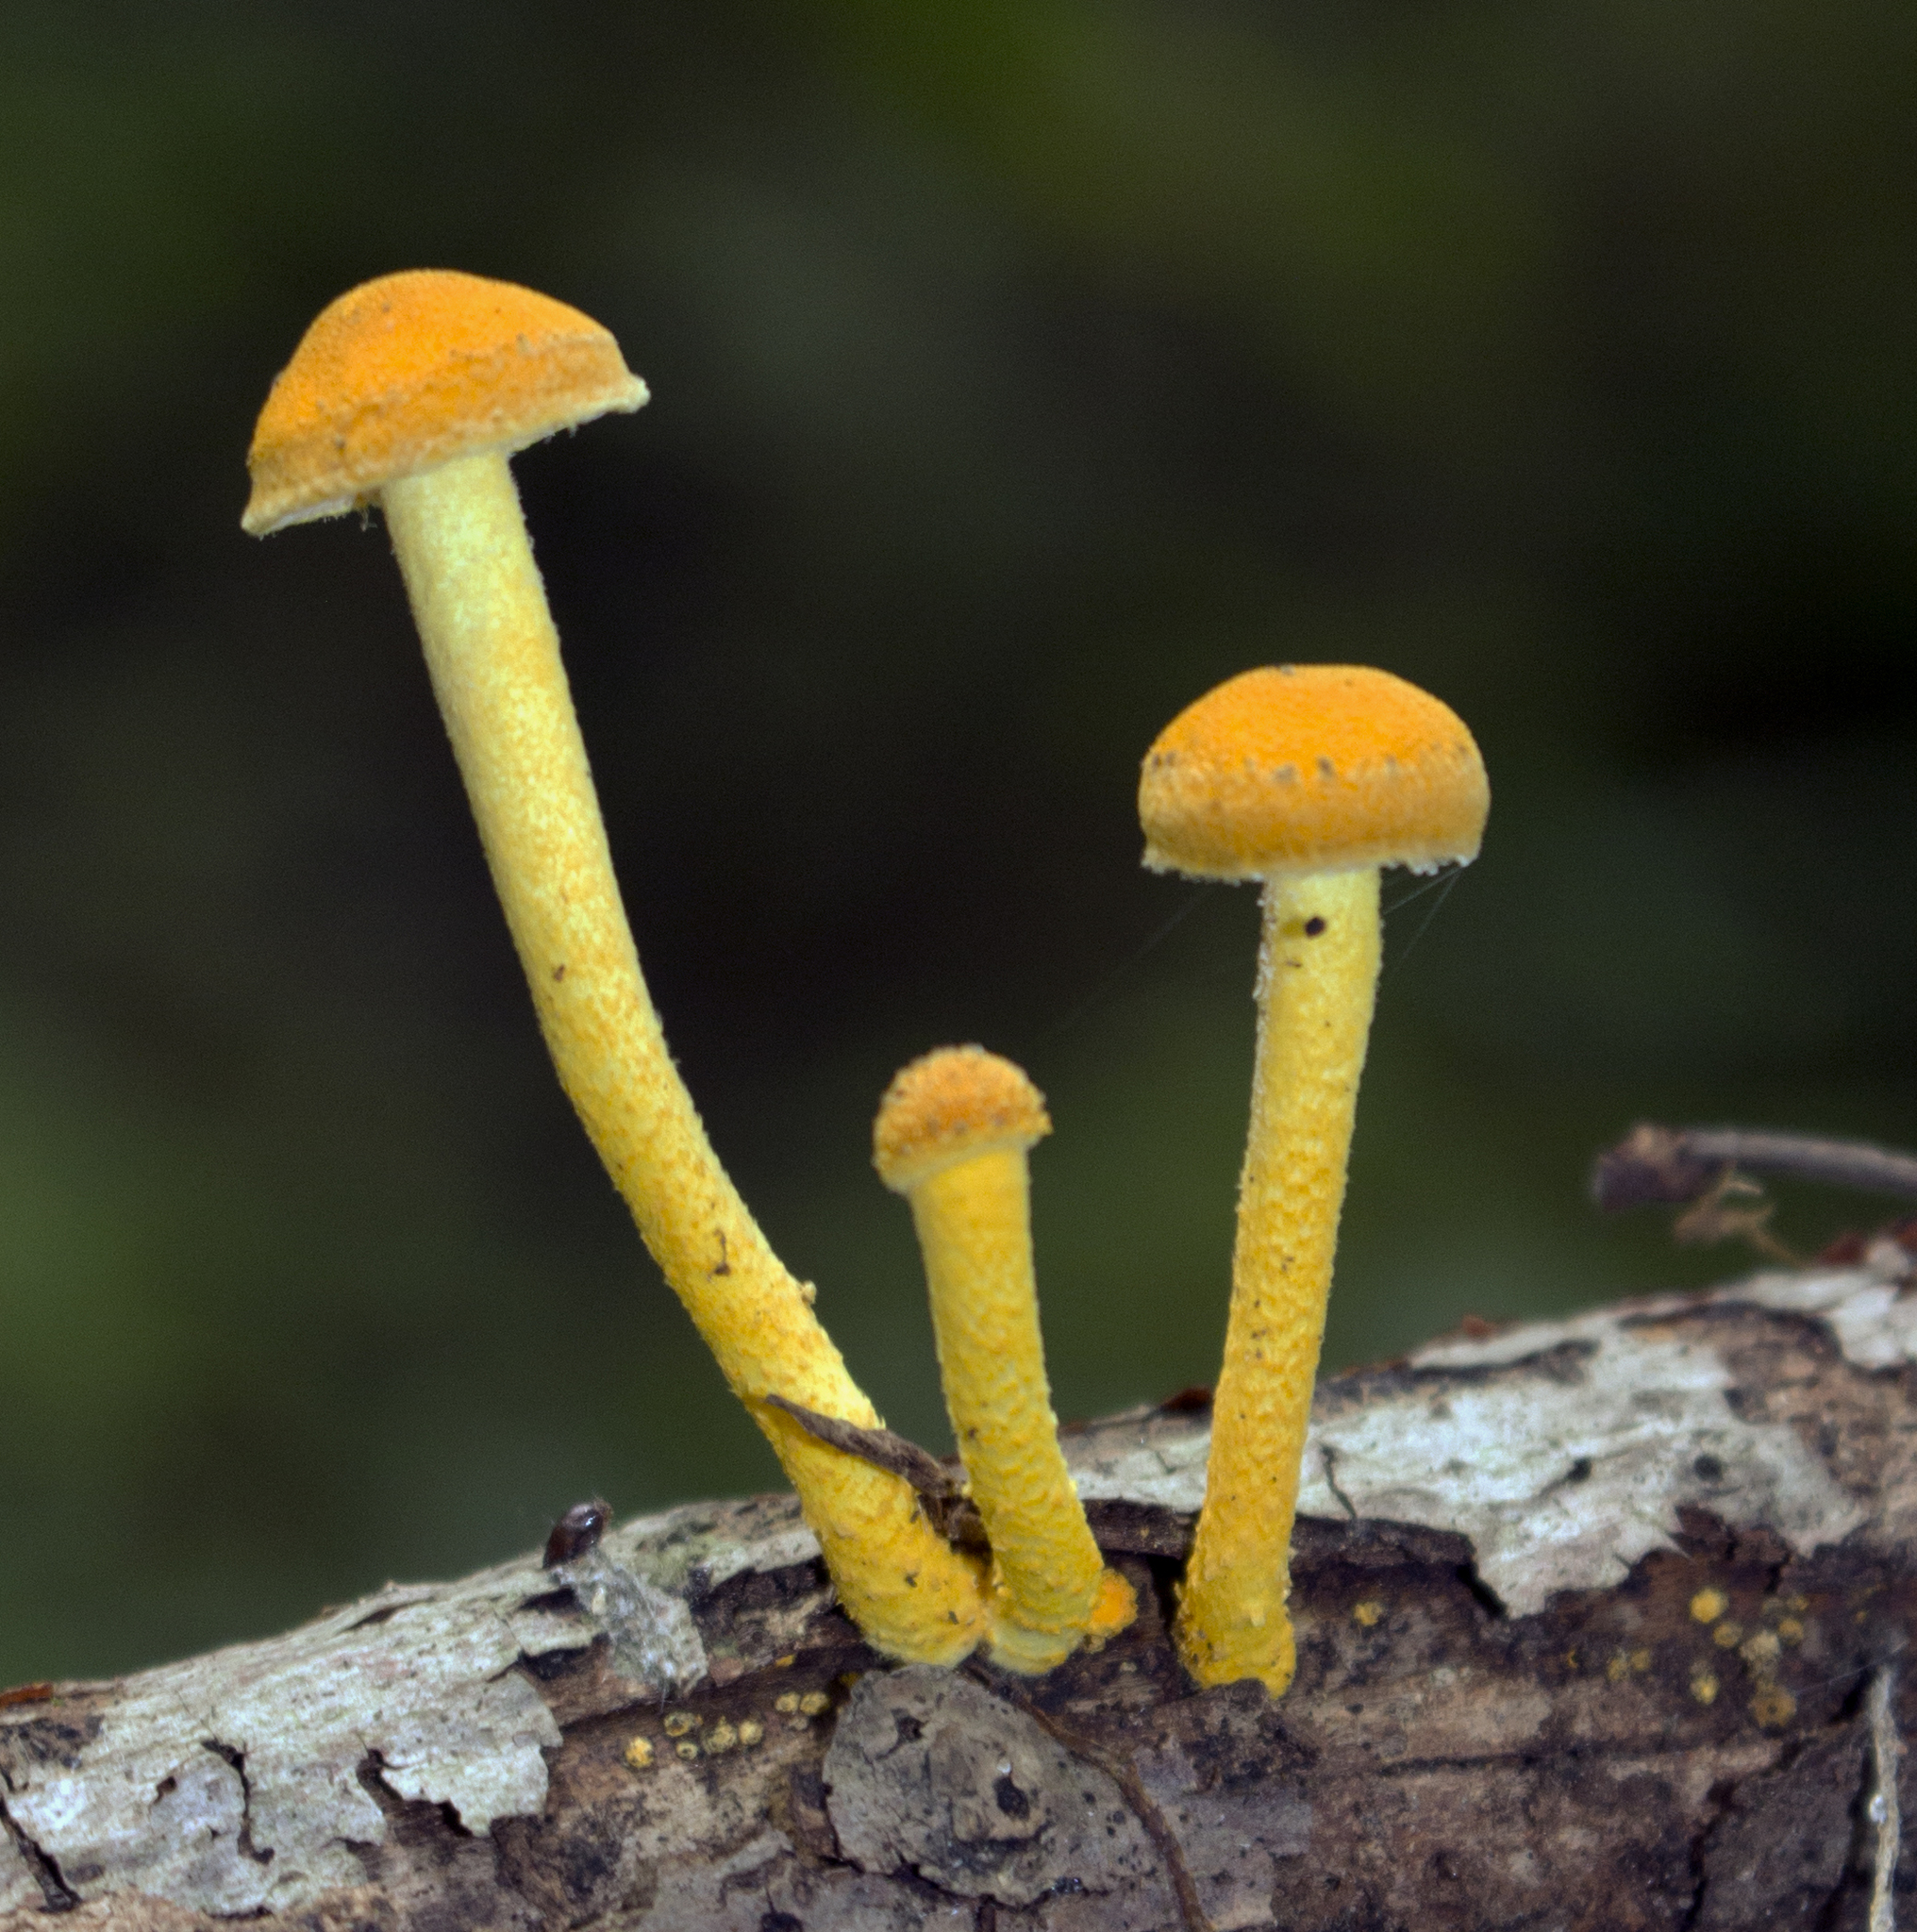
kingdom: Fungi
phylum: Basidiomycota
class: Agaricomycetes
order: Agaricales
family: Physalacriaceae
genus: Cyptotrama
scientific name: Cyptotrama chrysopepla
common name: Golden coincap
